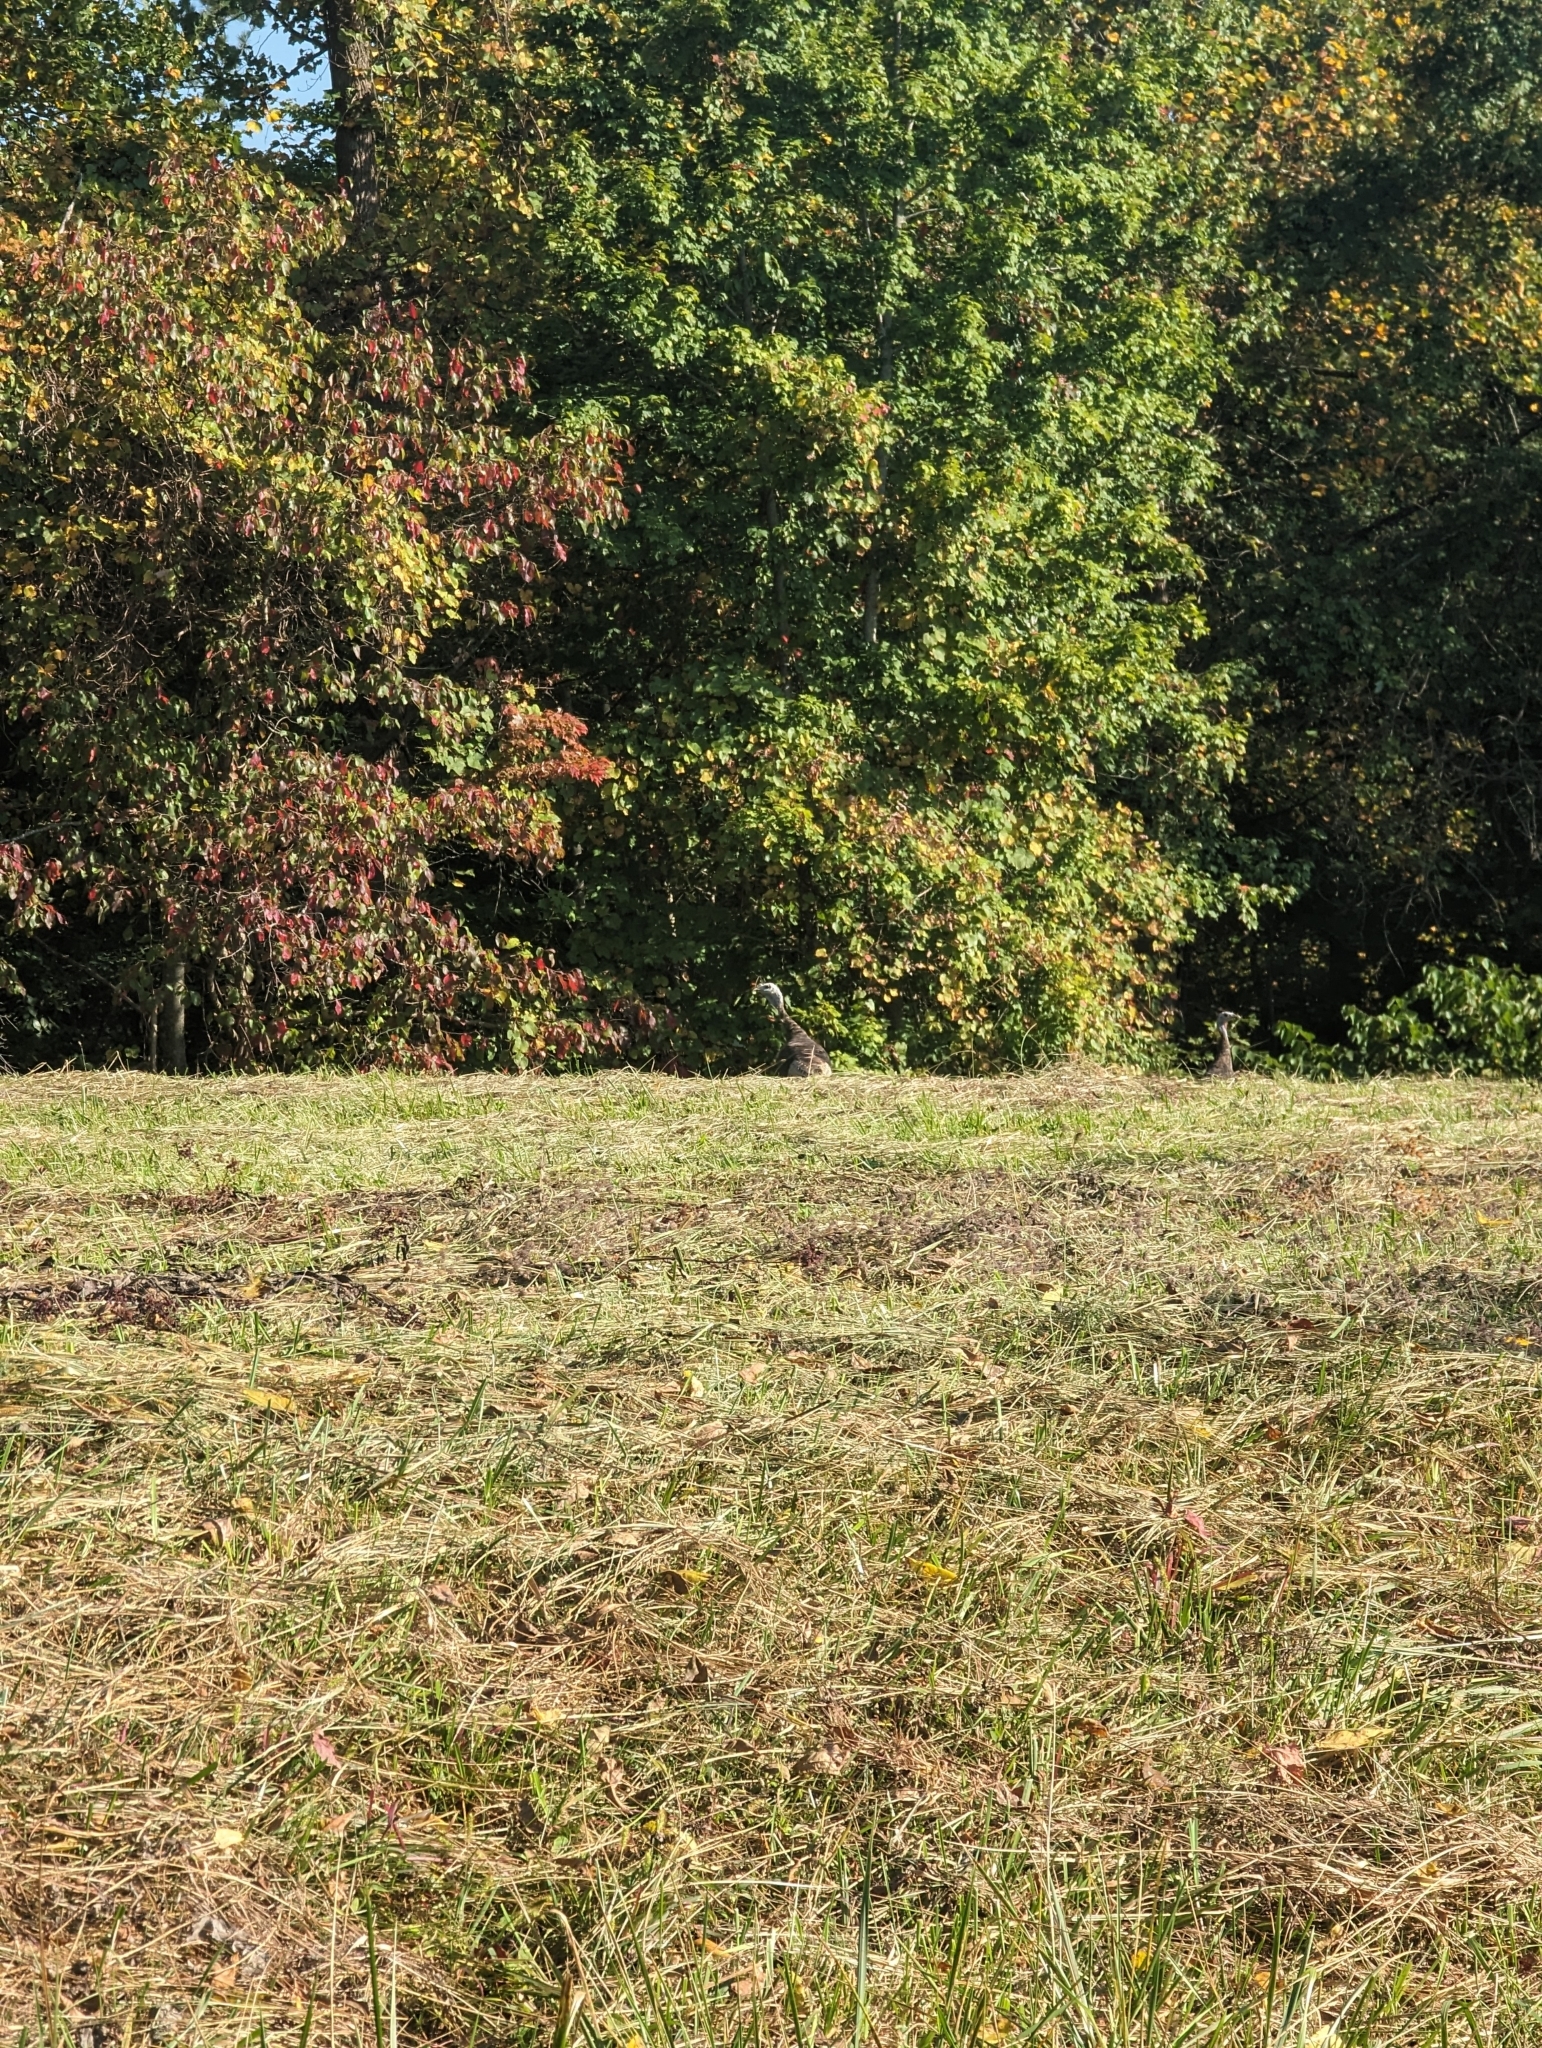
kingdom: Animalia
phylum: Chordata
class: Aves
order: Galliformes
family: Phasianidae
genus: Meleagris
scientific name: Meleagris gallopavo
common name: Wild turkey
